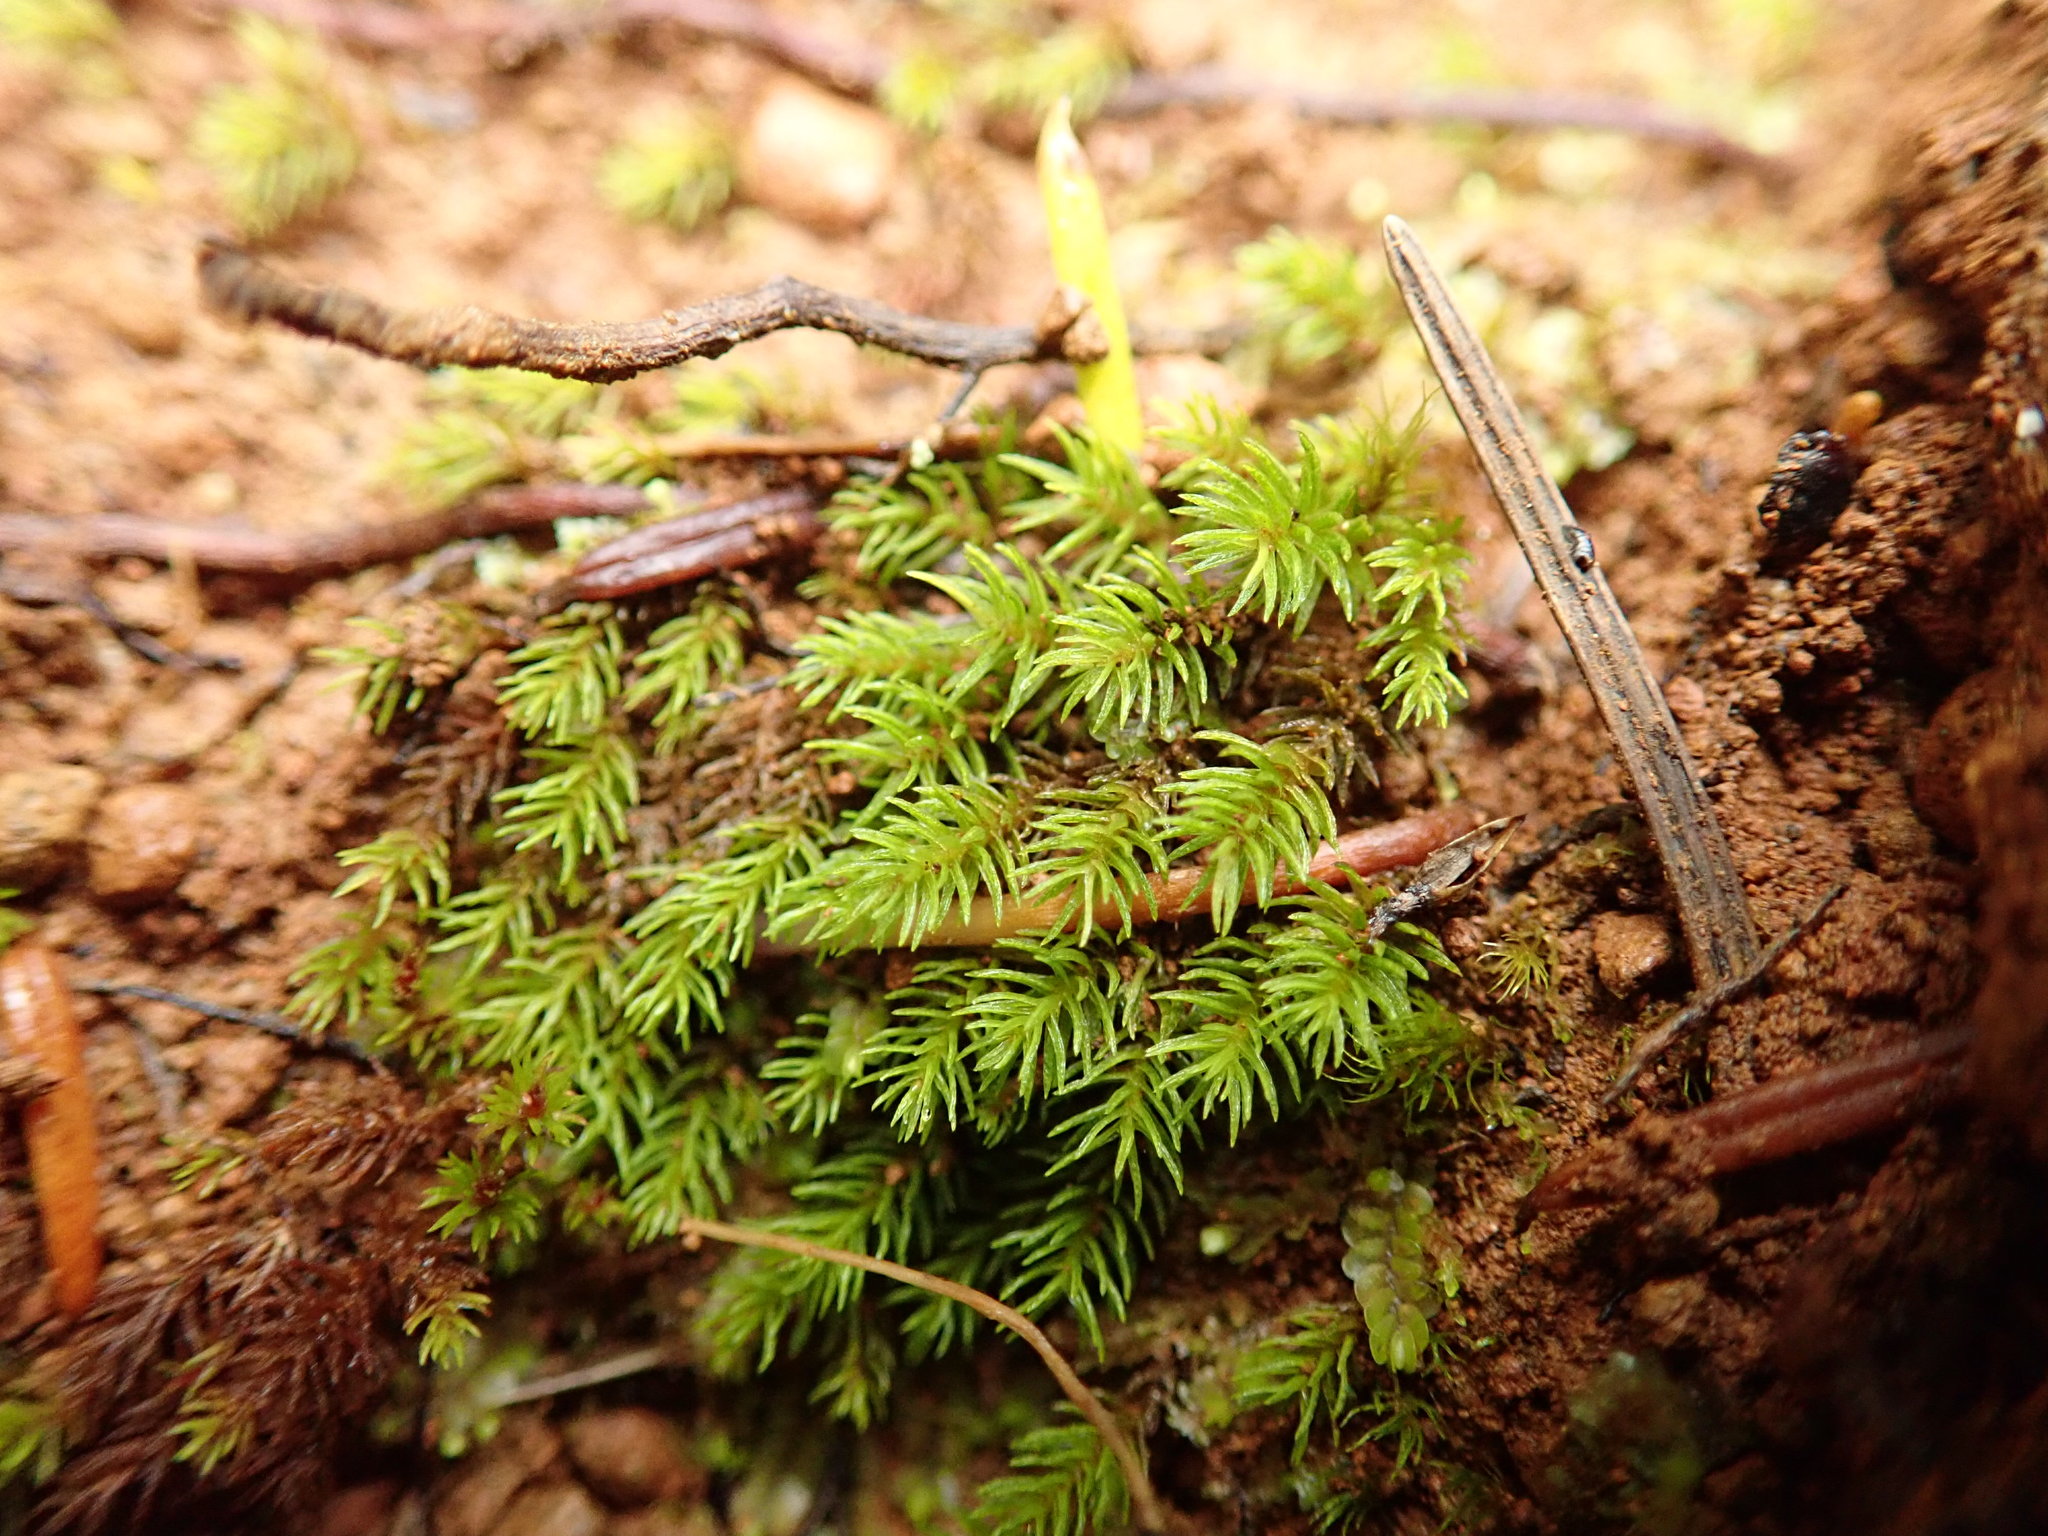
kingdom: Plantae
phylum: Bryophyta
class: Polytrichopsida
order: Polytrichales
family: Polytrichaceae
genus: Oligotrichum
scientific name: Oligotrichum aligerum
